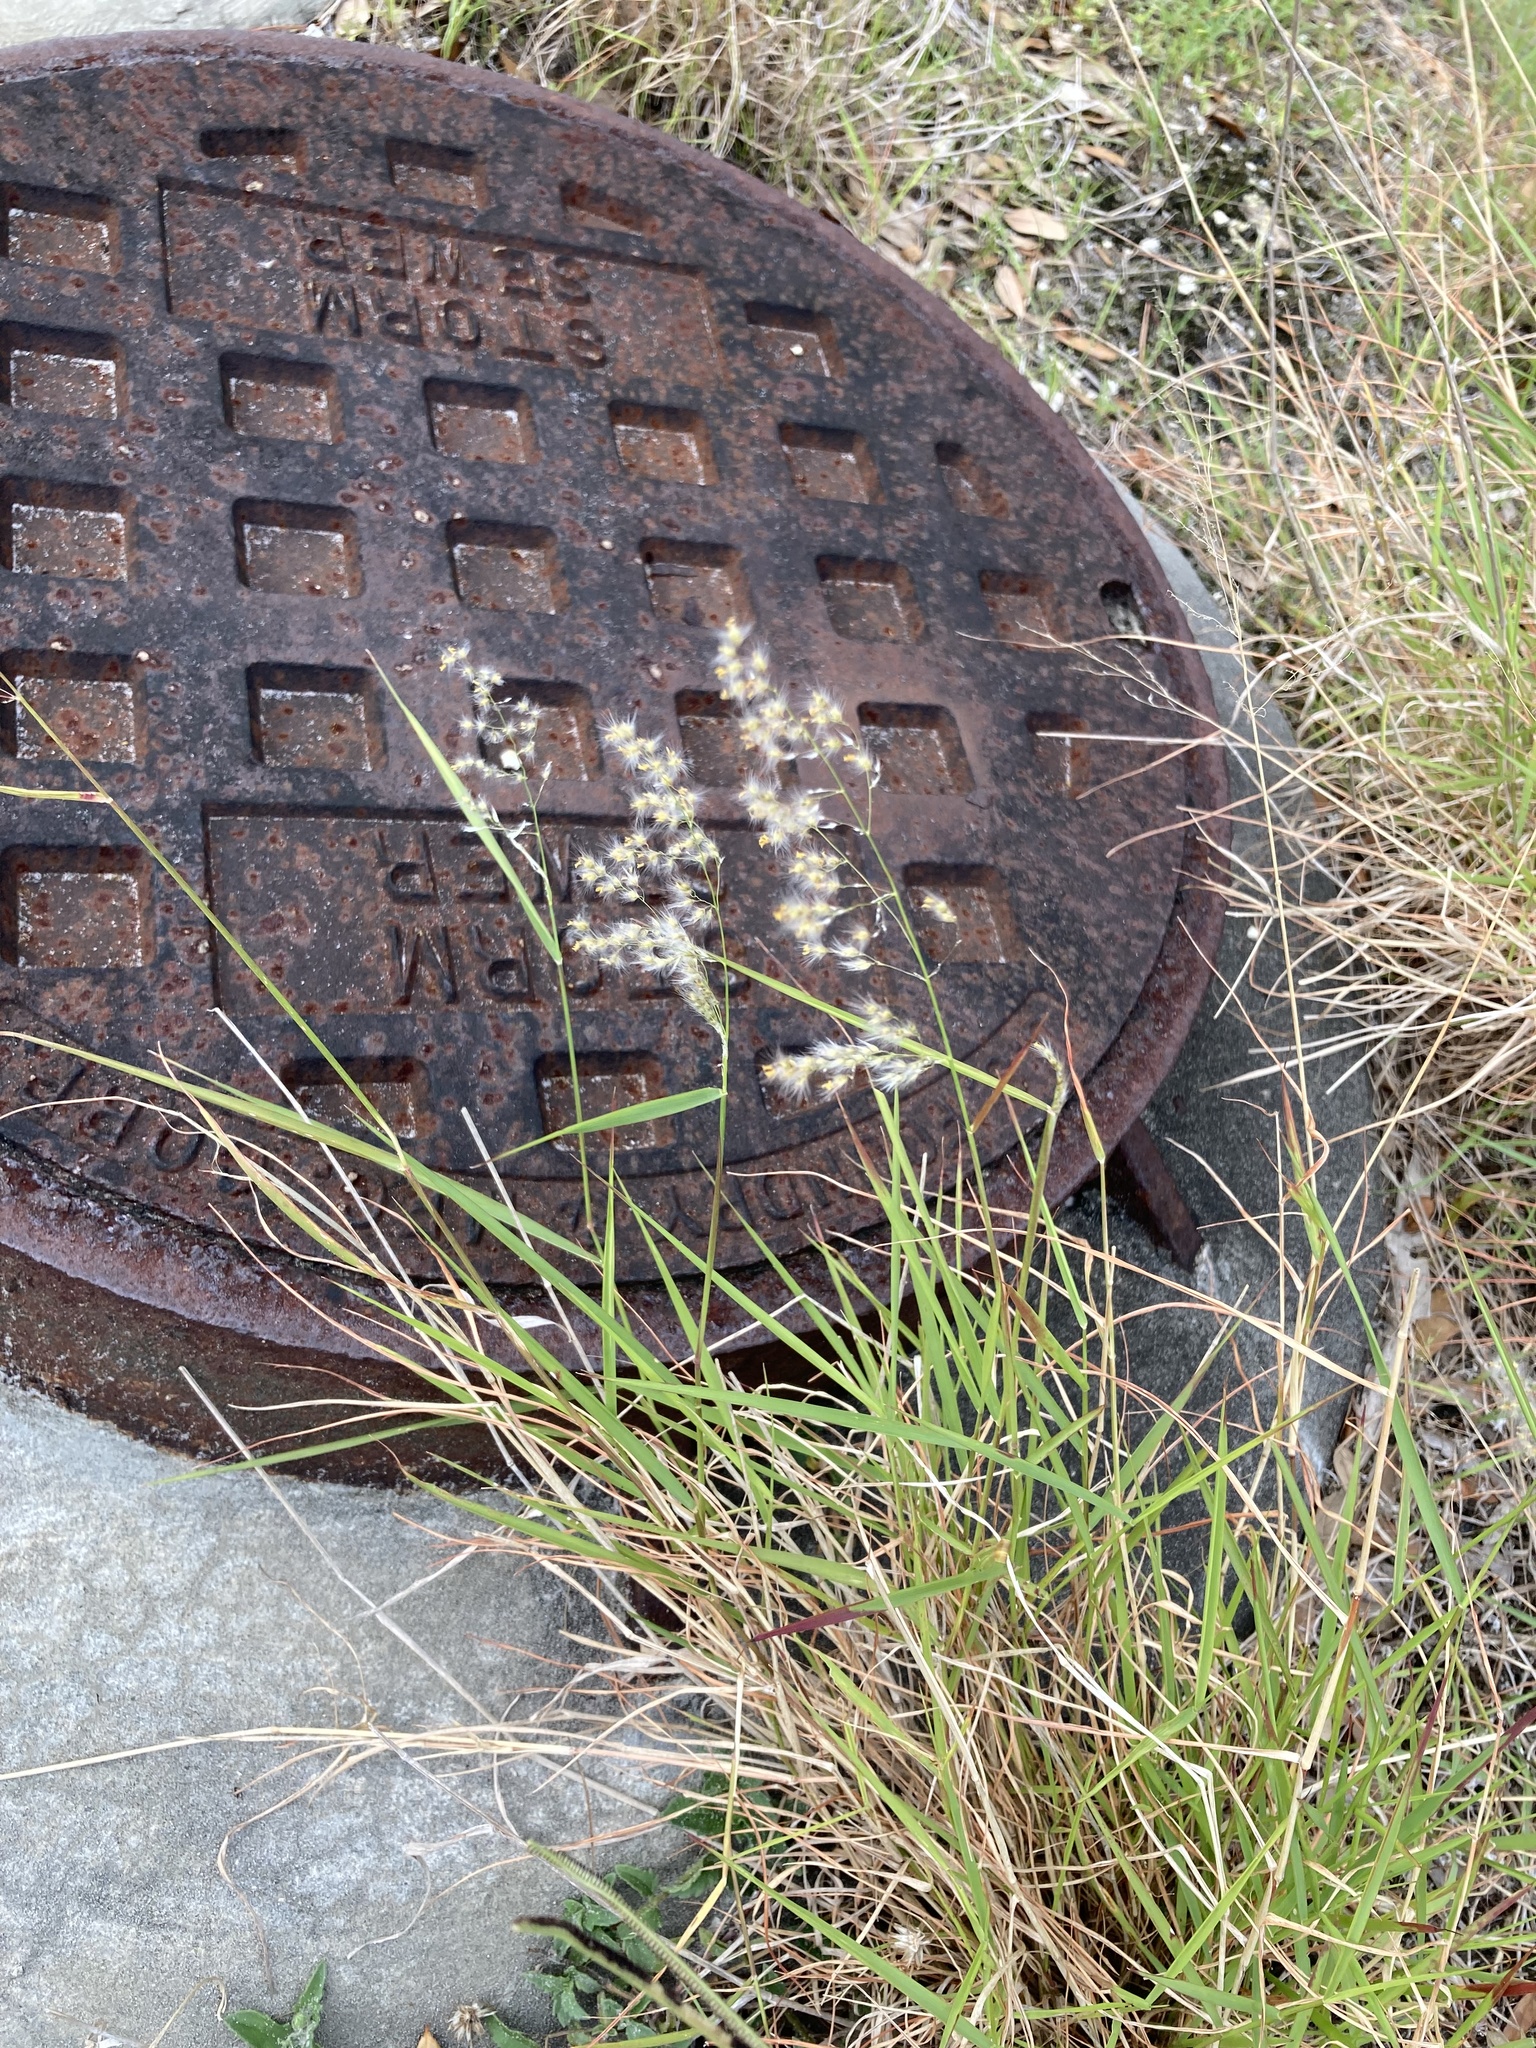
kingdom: Plantae
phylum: Tracheophyta
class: Liliopsida
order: Poales
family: Poaceae
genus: Melinis
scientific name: Melinis repens
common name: Rose natal grass
